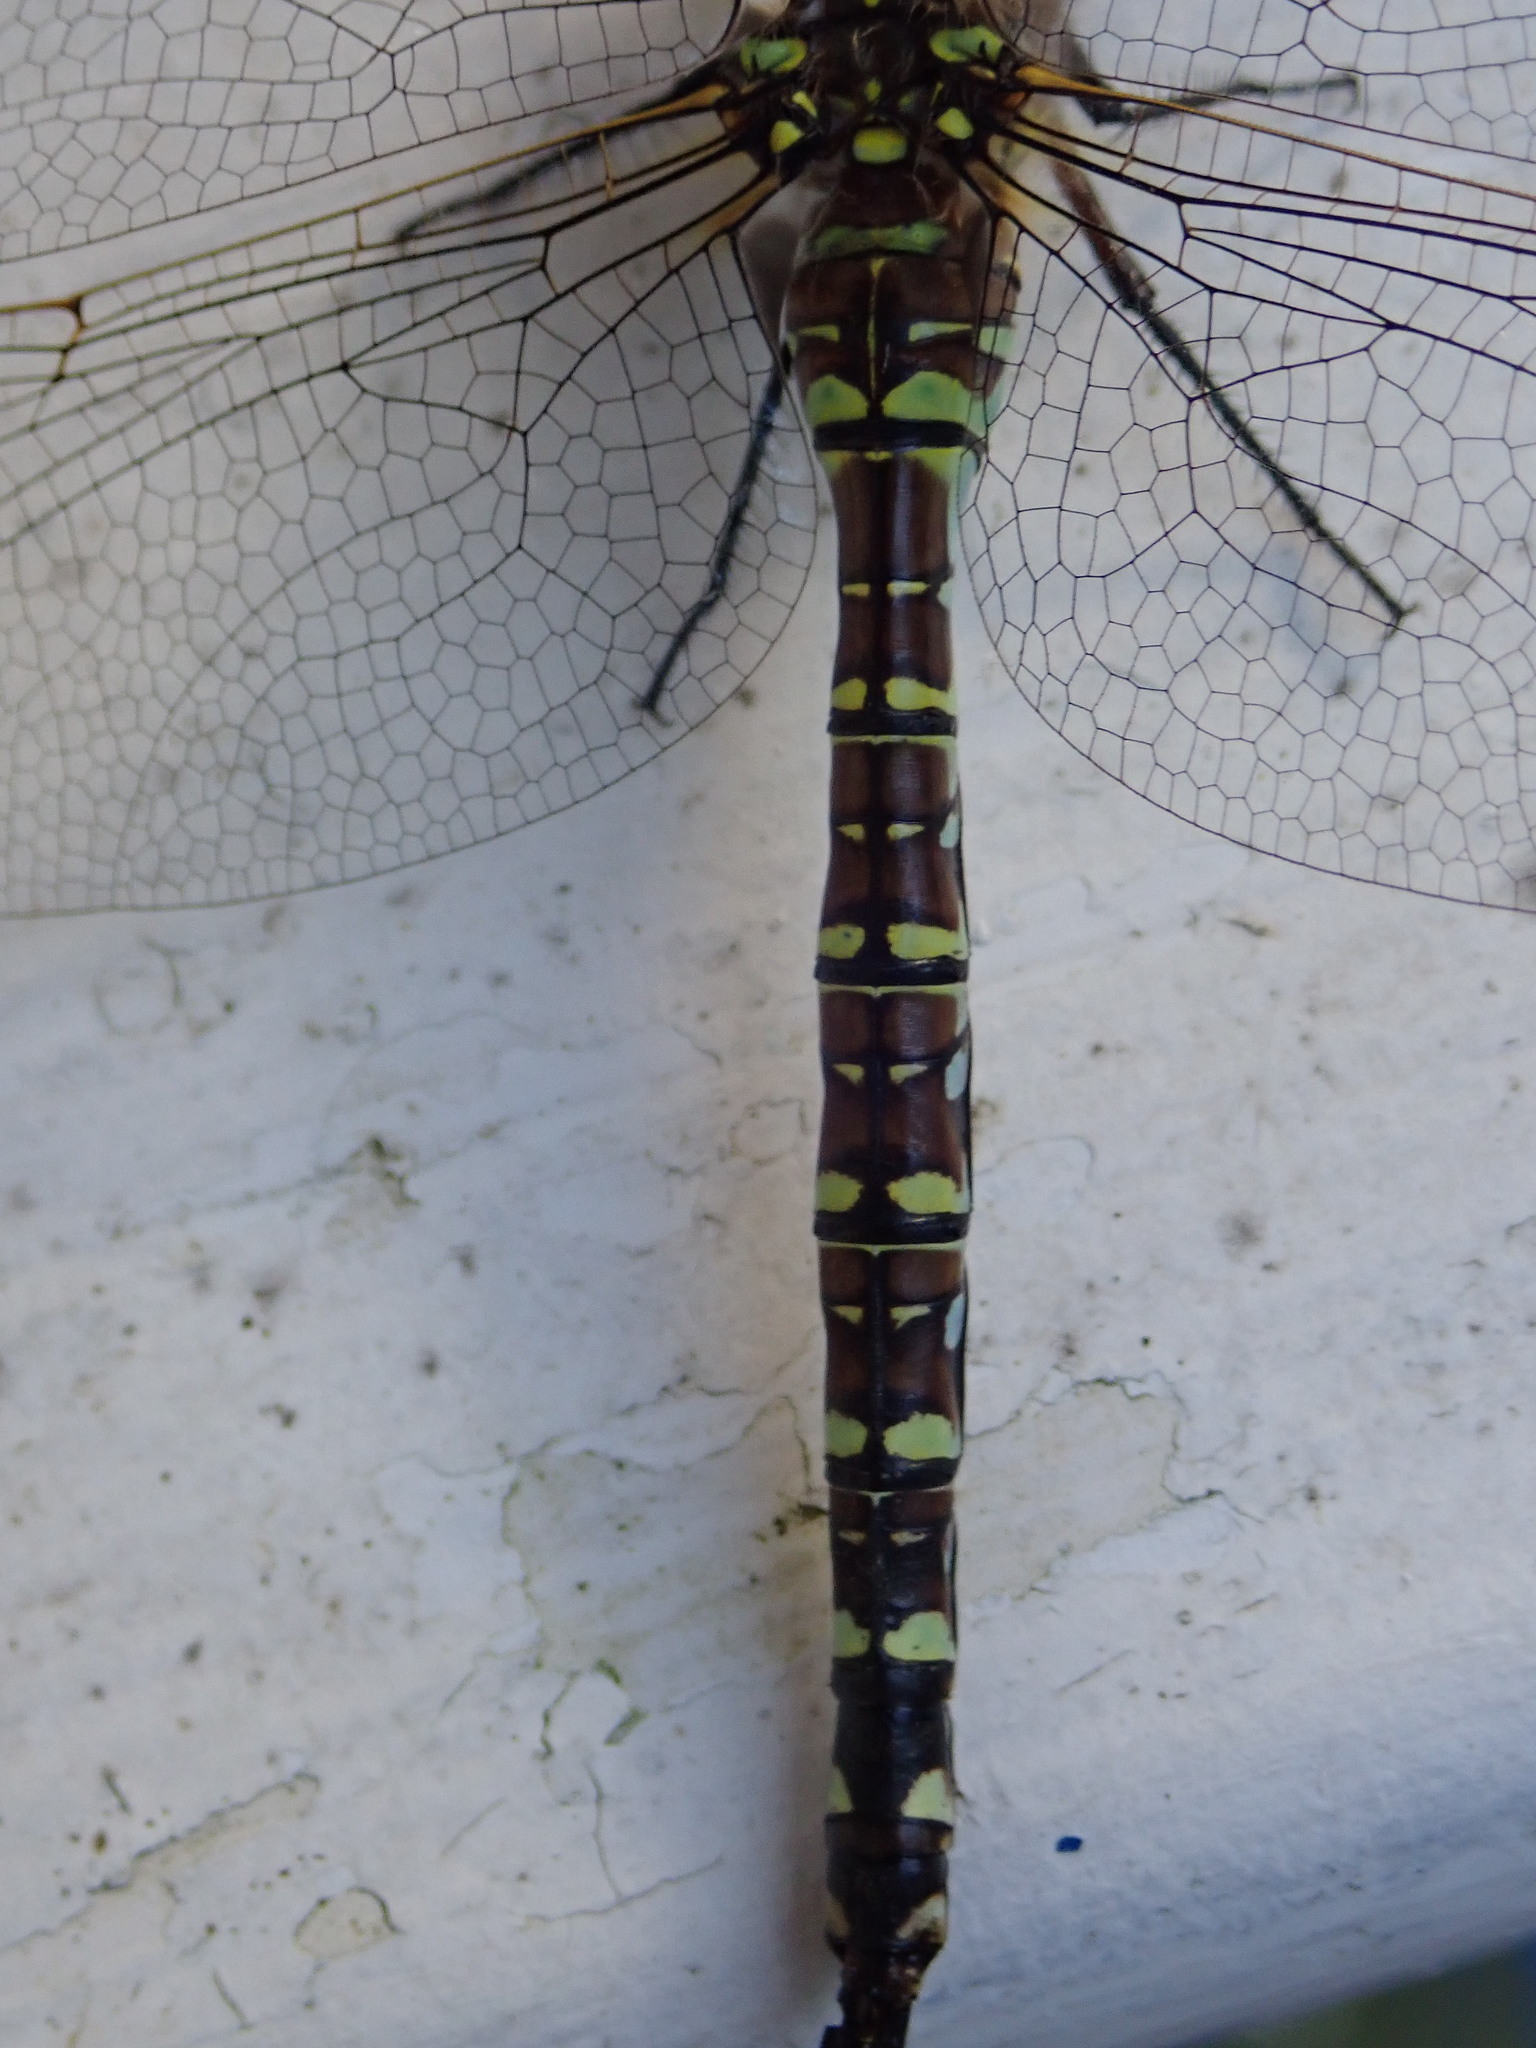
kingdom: Animalia
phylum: Arthropoda
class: Insecta
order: Odonata
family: Aeshnidae
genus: Aeshna
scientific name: Aeshna interrupta
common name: Variable darner
